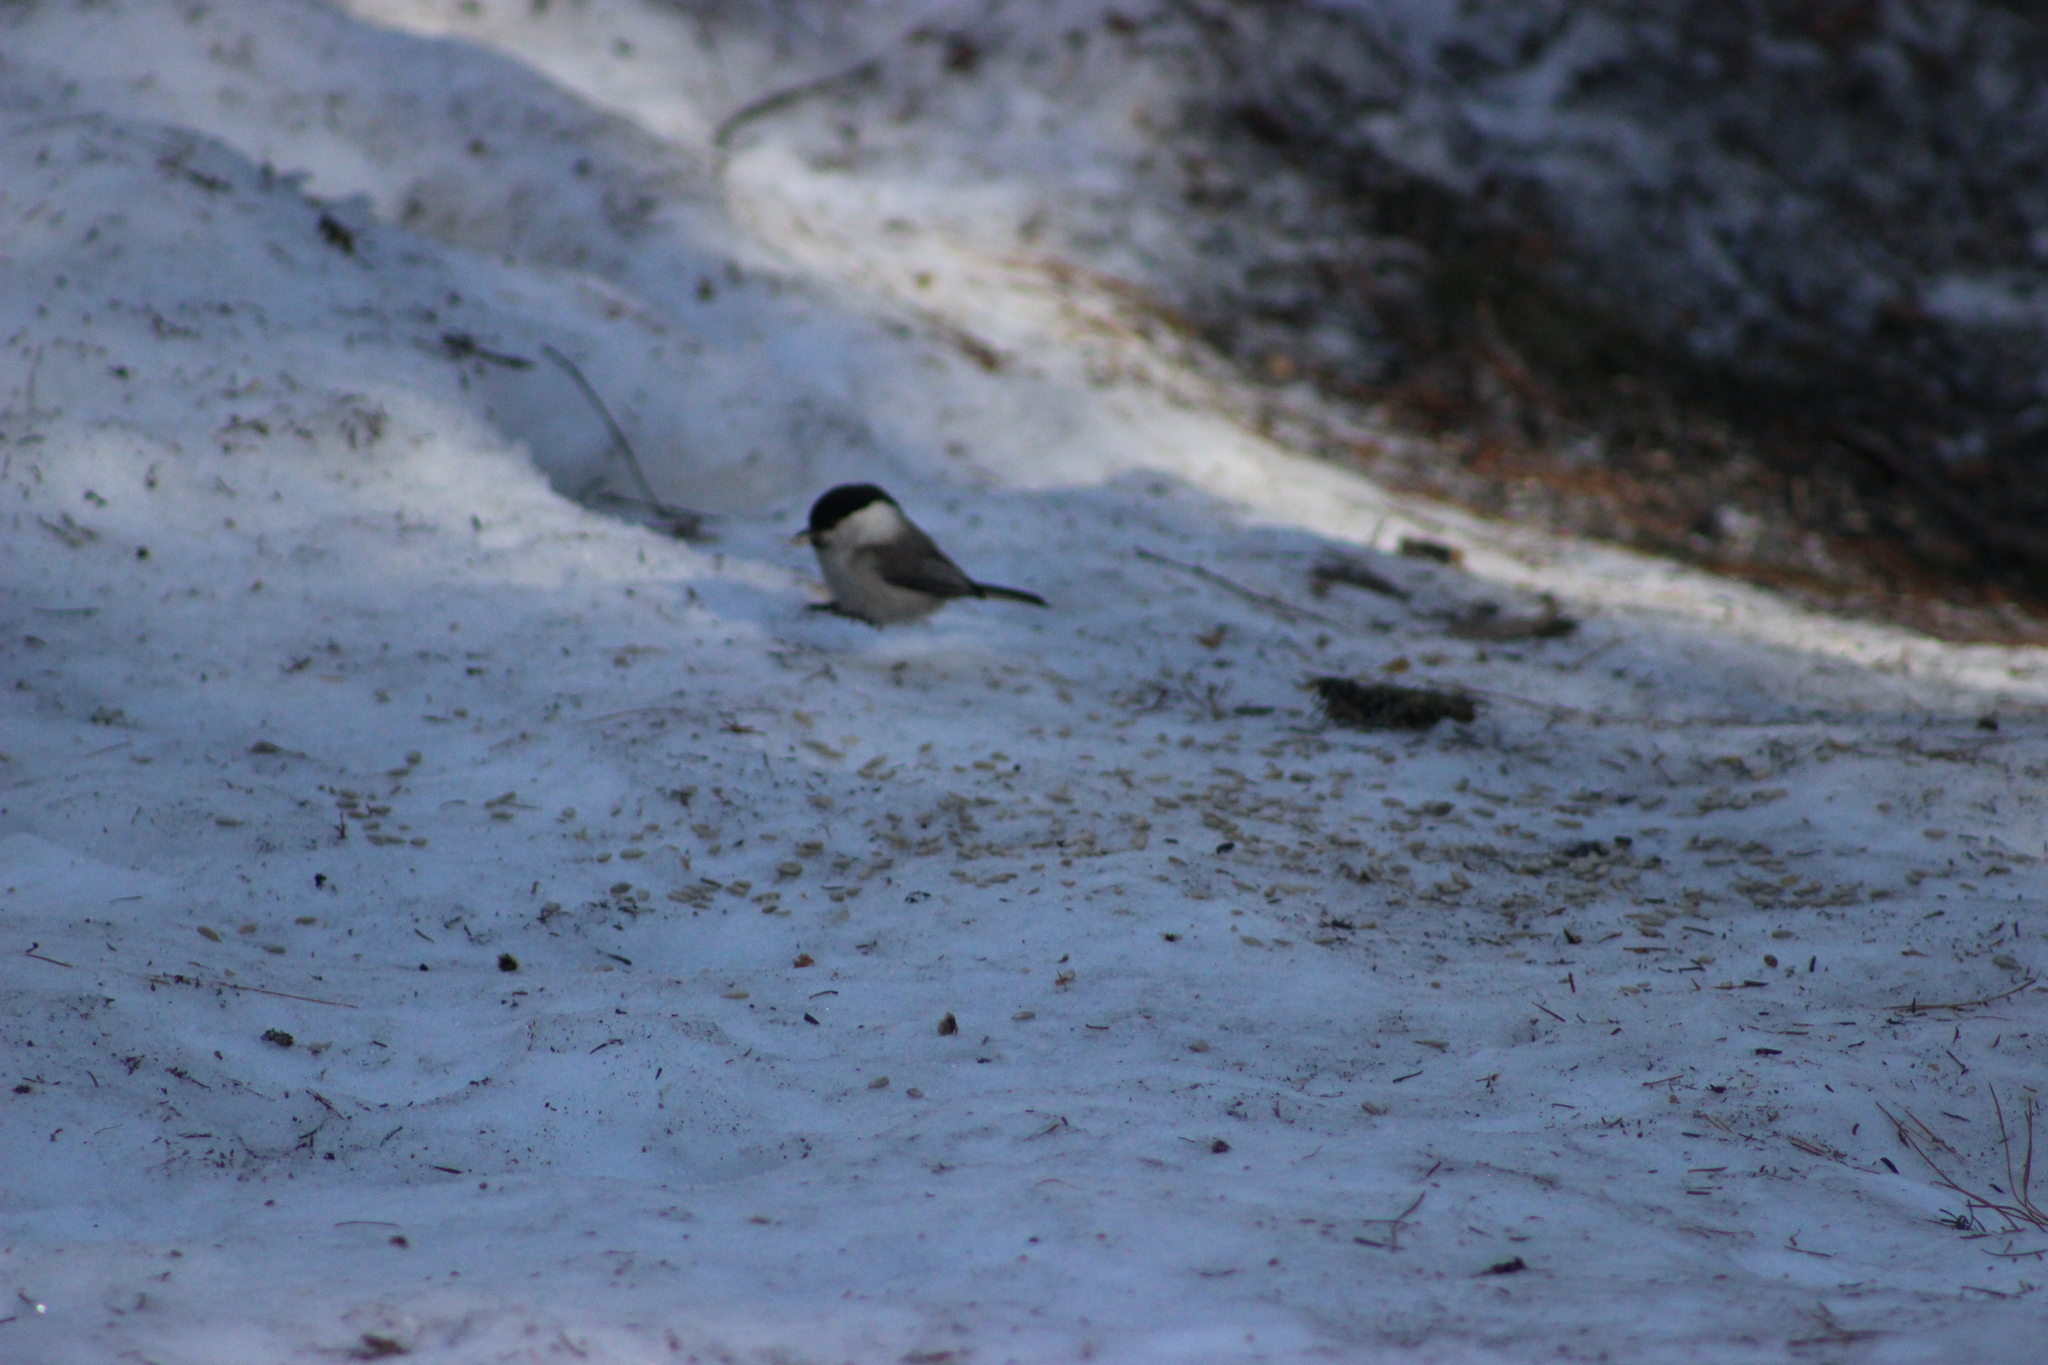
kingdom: Animalia
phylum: Chordata
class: Aves
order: Passeriformes
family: Paridae
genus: Poecile
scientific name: Poecile montanus
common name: Willow tit
